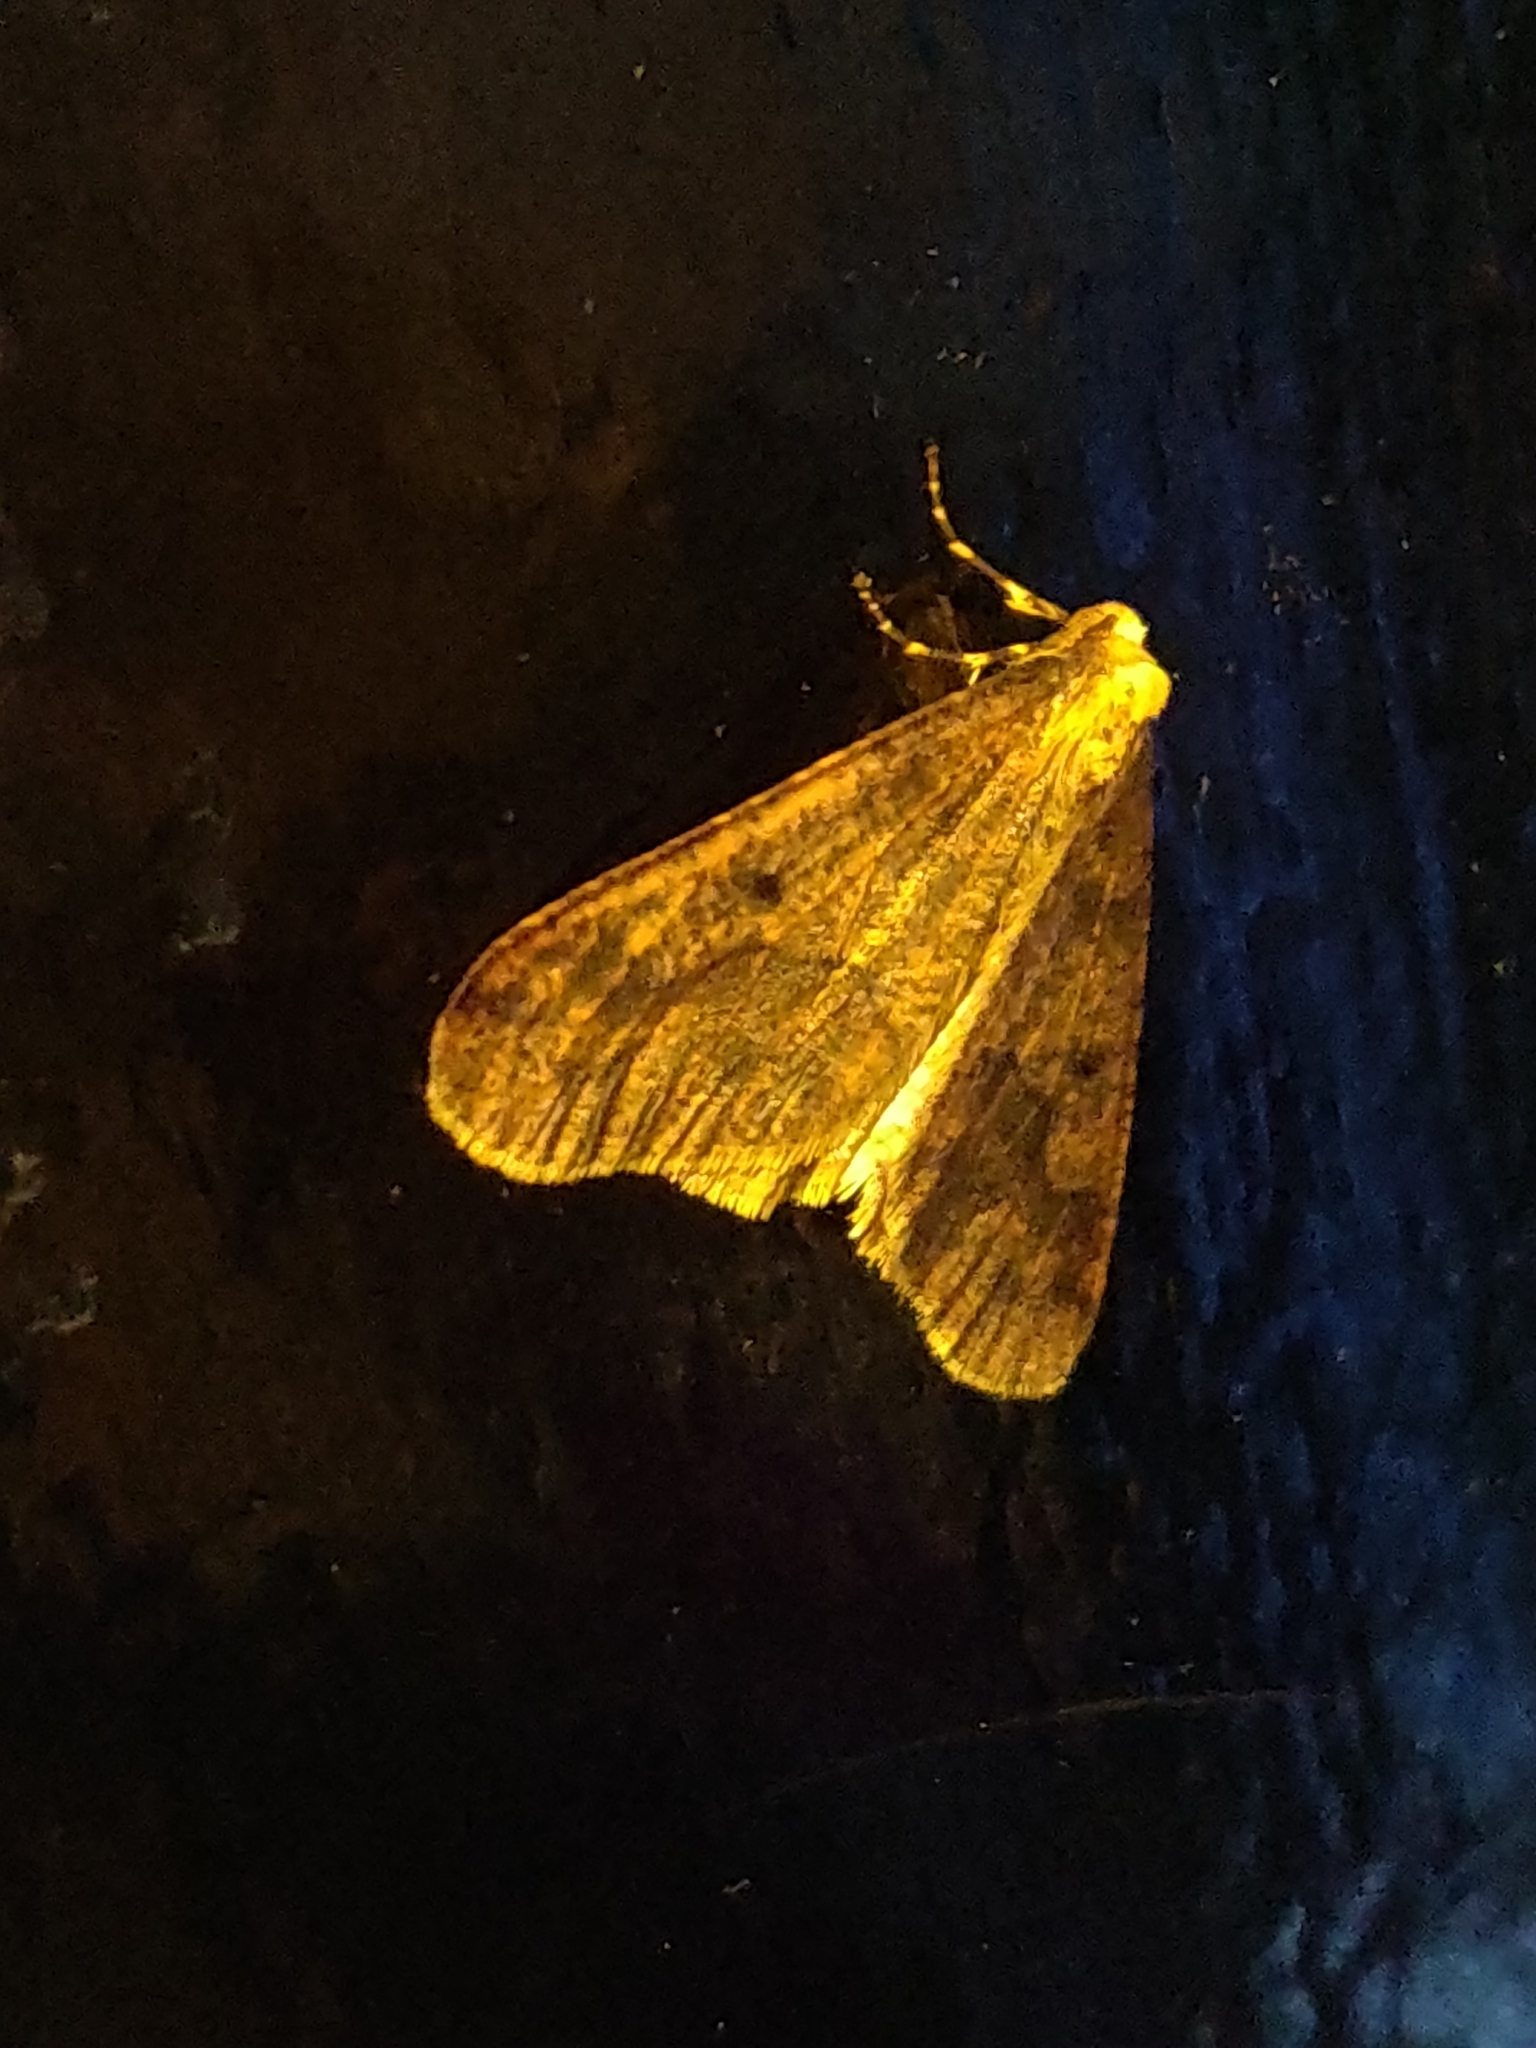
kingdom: Animalia
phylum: Arthropoda
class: Insecta
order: Lepidoptera
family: Geometridae
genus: Erannis
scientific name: Erannis defoliaria
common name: Mottled umber
